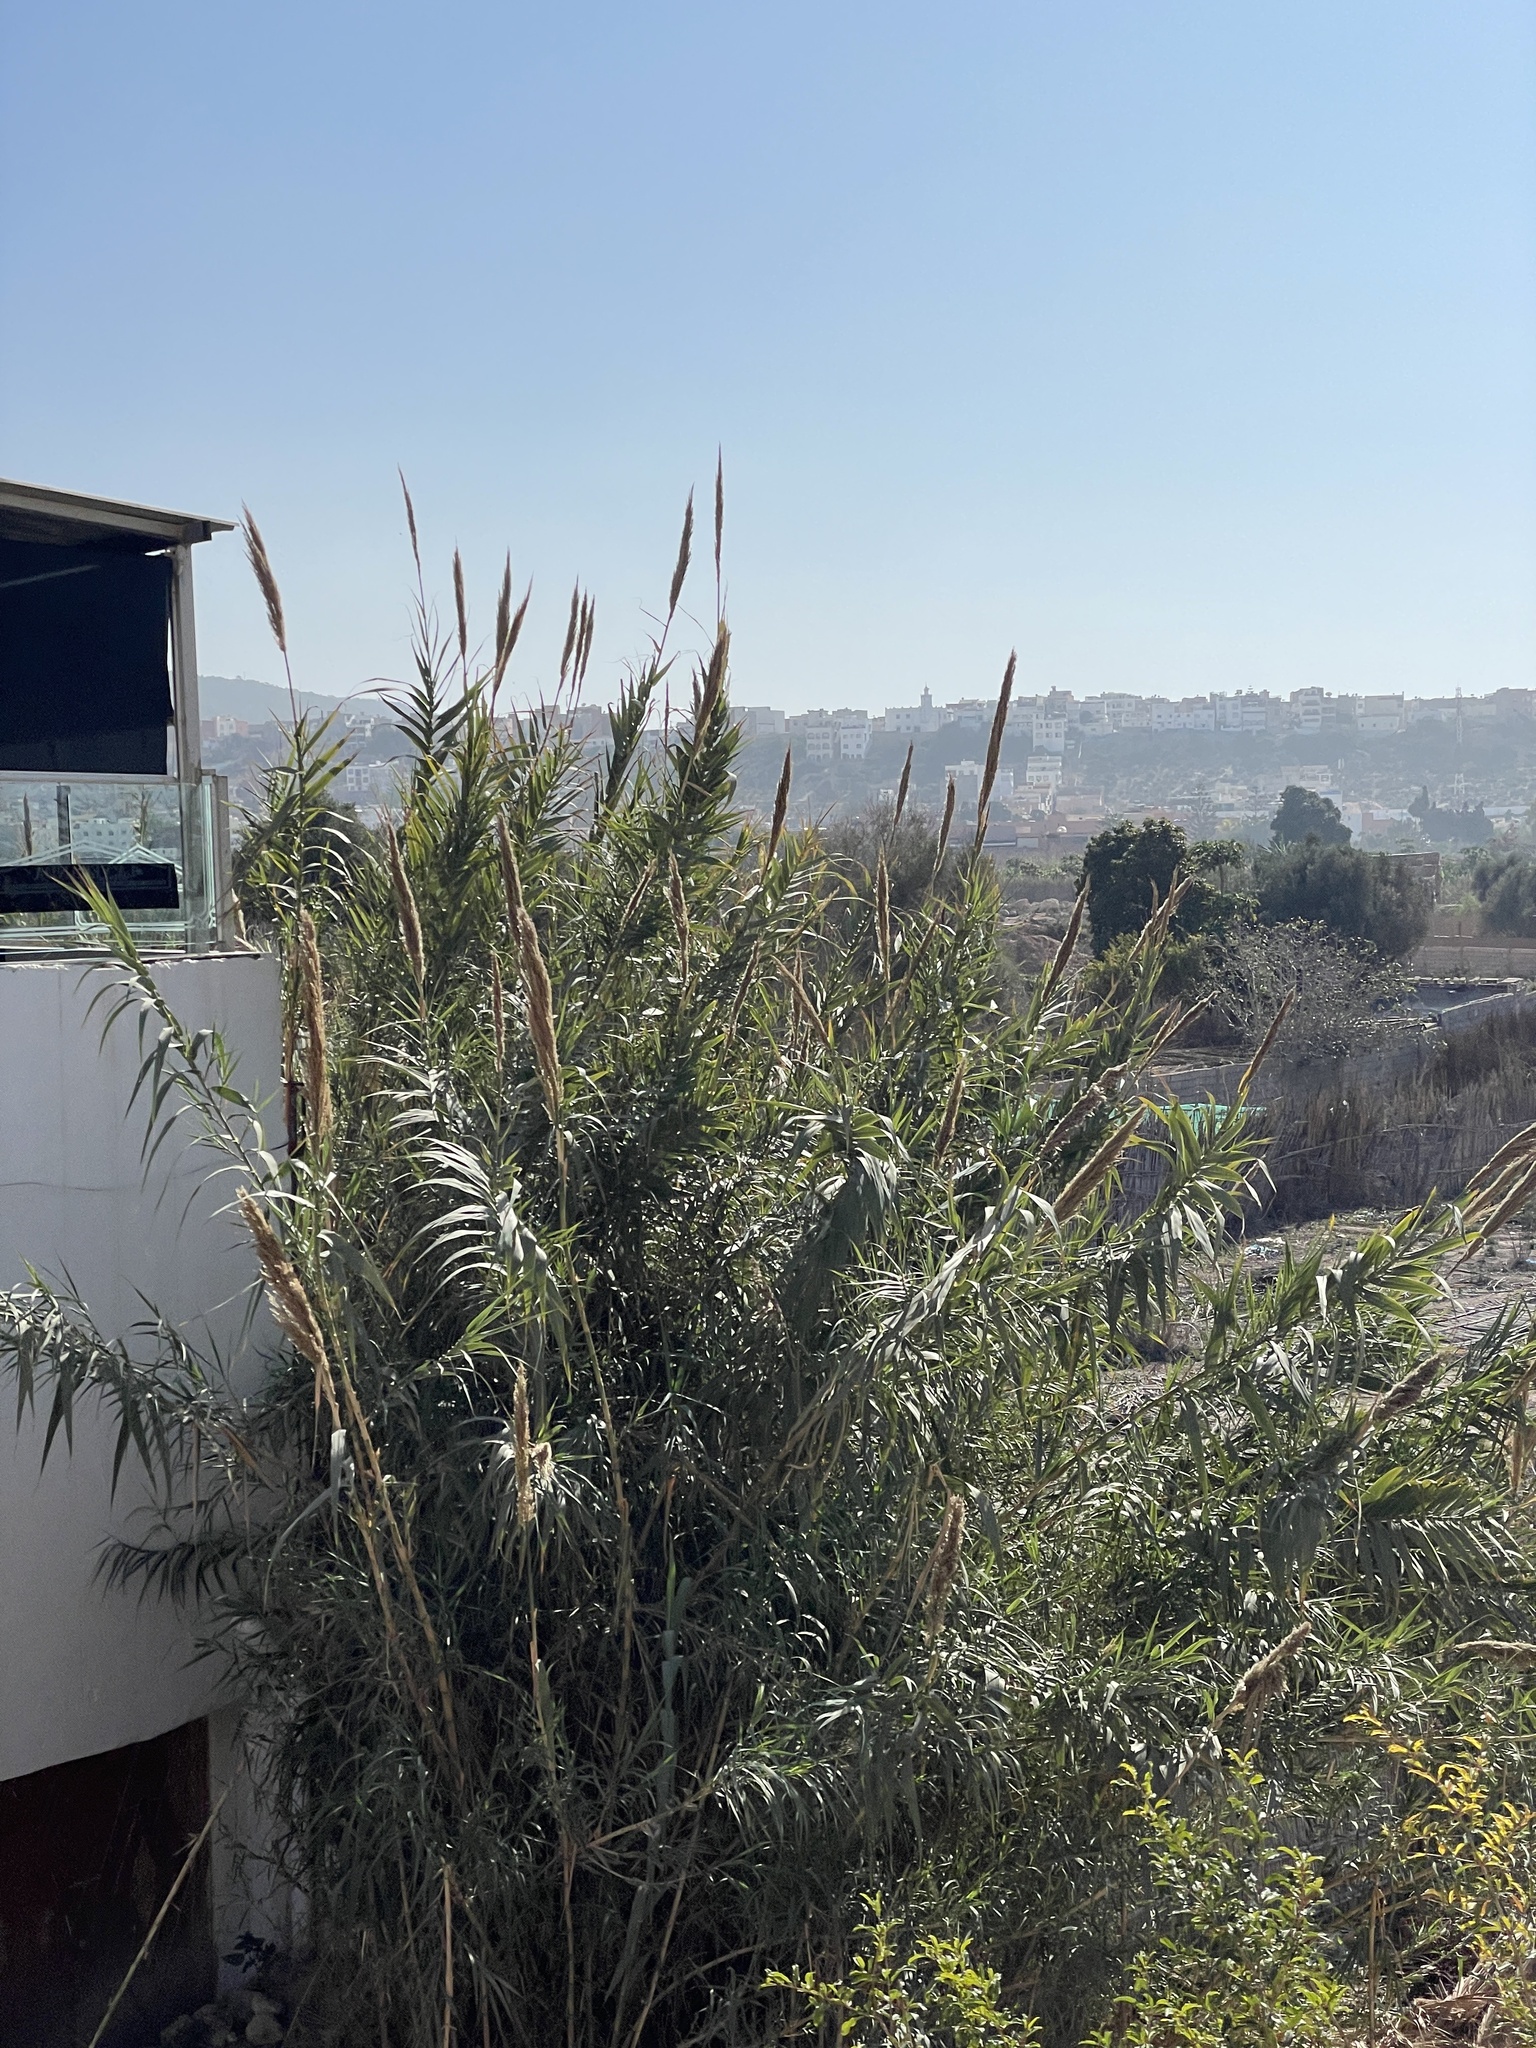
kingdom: Plantae
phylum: Tracheophyta
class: Liliopsida
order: Poales
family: Poaceae
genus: Arundo
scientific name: Arundo donax
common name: Giant reed
